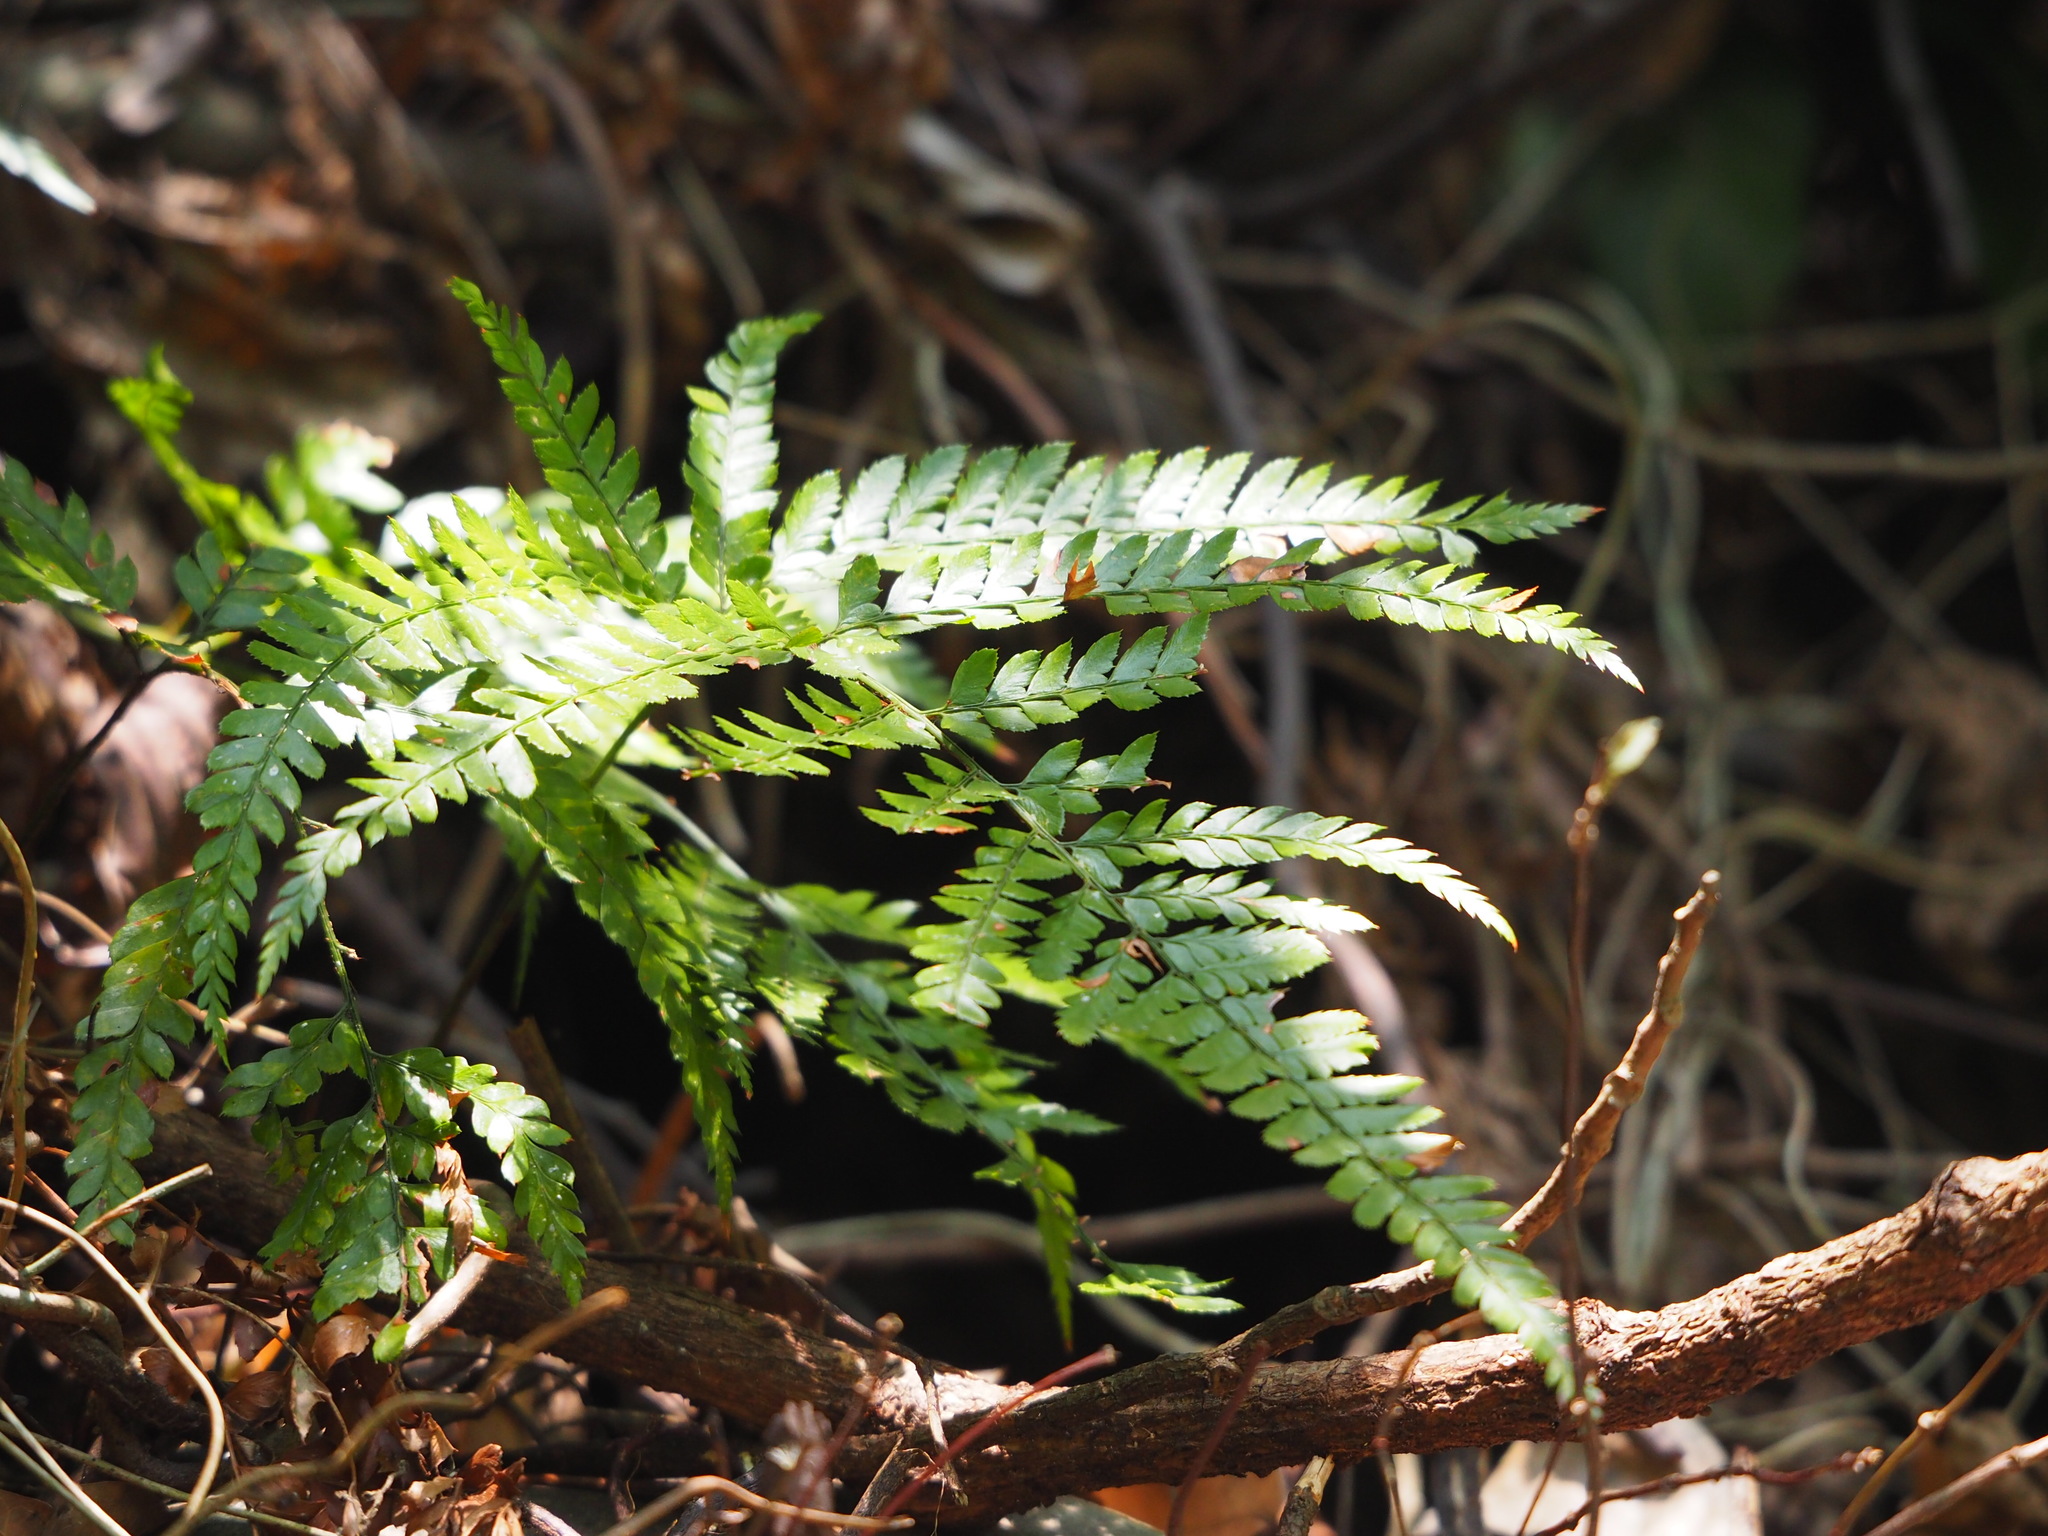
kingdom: Plantae
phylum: Tracheophyta
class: Polypodiopsida
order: Polypodiales
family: Dryopteridaceae
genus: Arachniodes
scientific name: Arachniodes aristata
